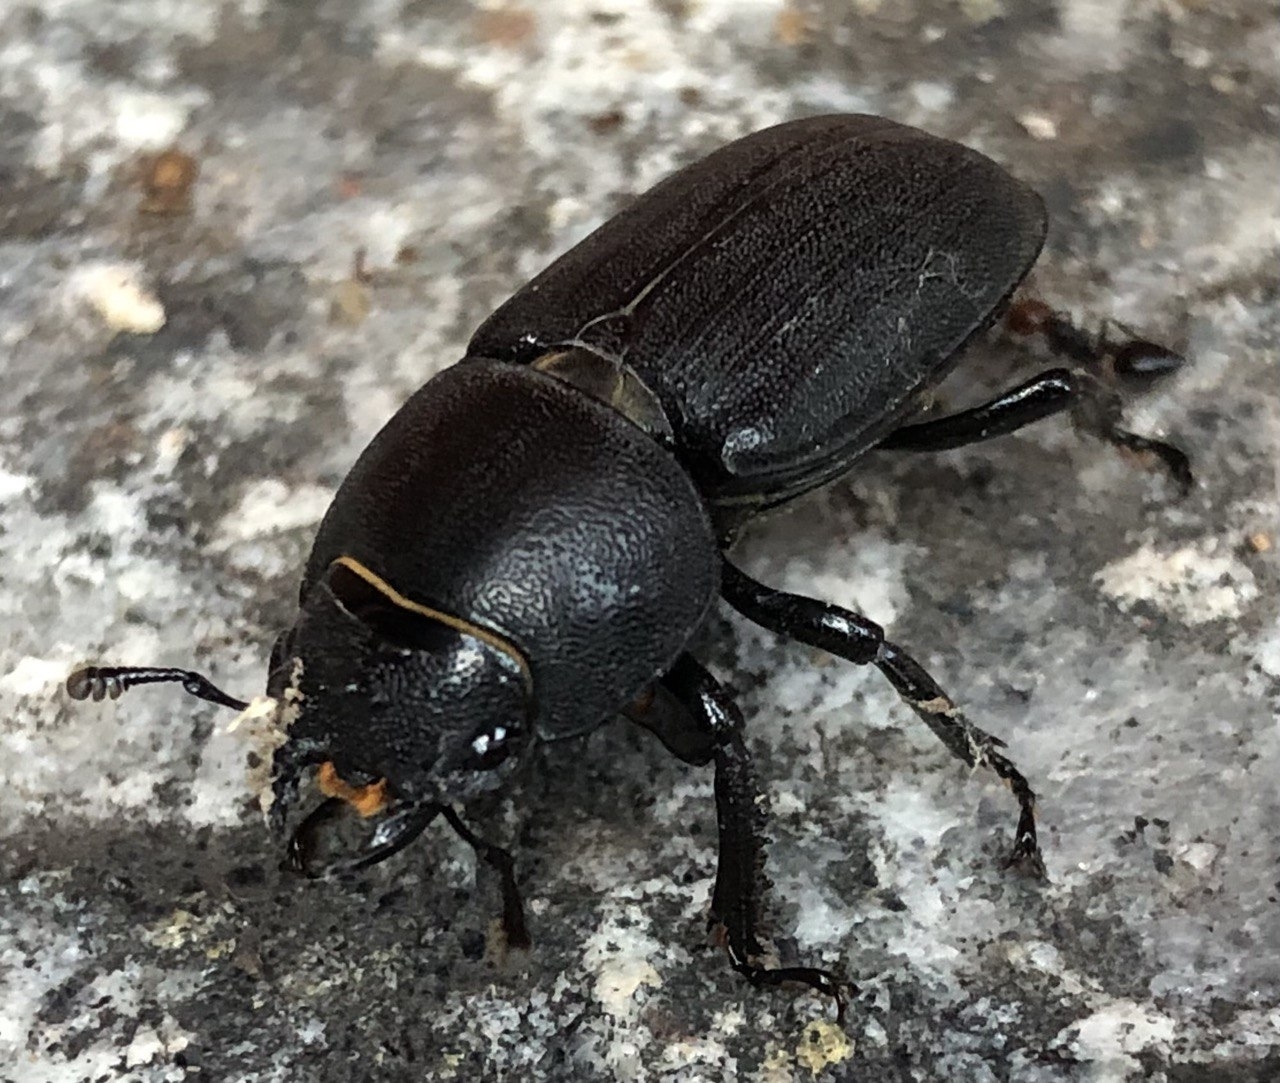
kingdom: Animalia
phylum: Arthropoda
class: Insecta
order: Coleoptera
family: Lucanidae
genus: Dorcus
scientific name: Dorcus parallelipipedus
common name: Lesser stag beetle
